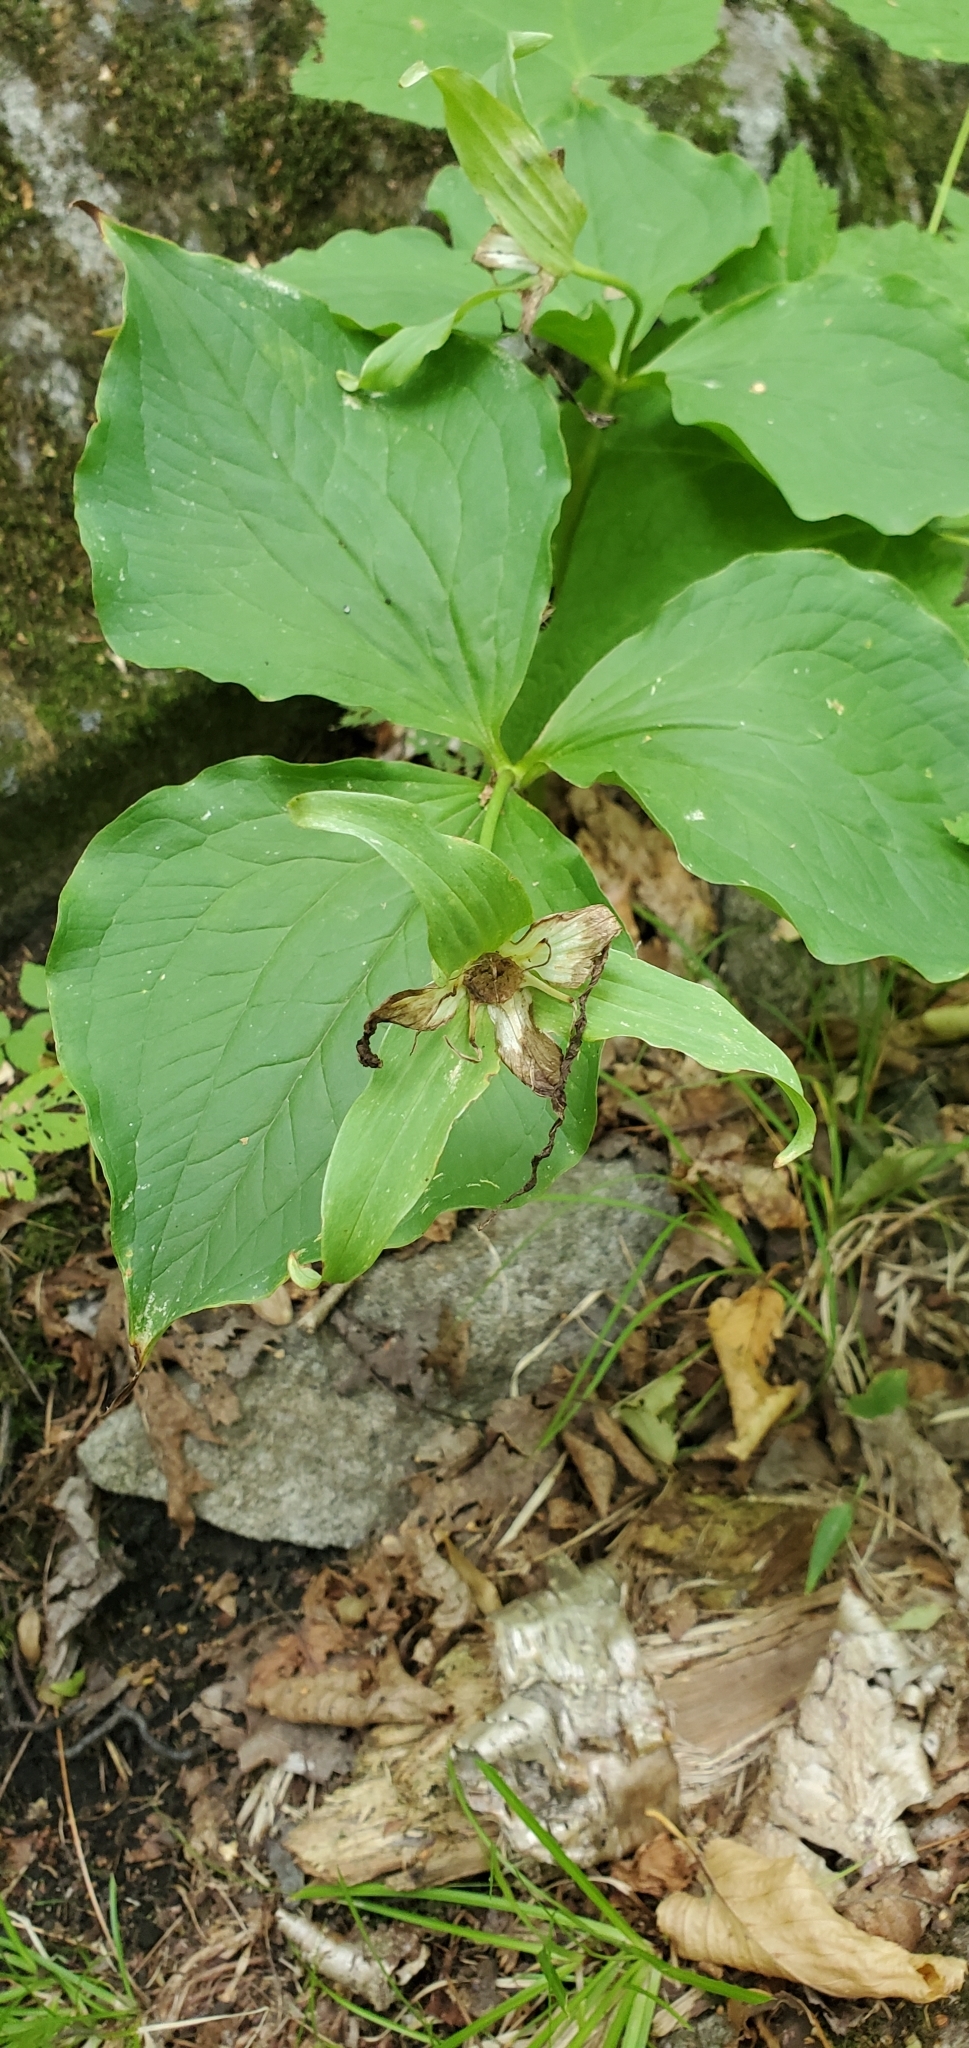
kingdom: Plantae
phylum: Tracheophyta
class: Liliopsida
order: Liliales
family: Melanthiaceae
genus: Trillium
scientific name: Trillium grandiflorum
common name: Great white trillium
